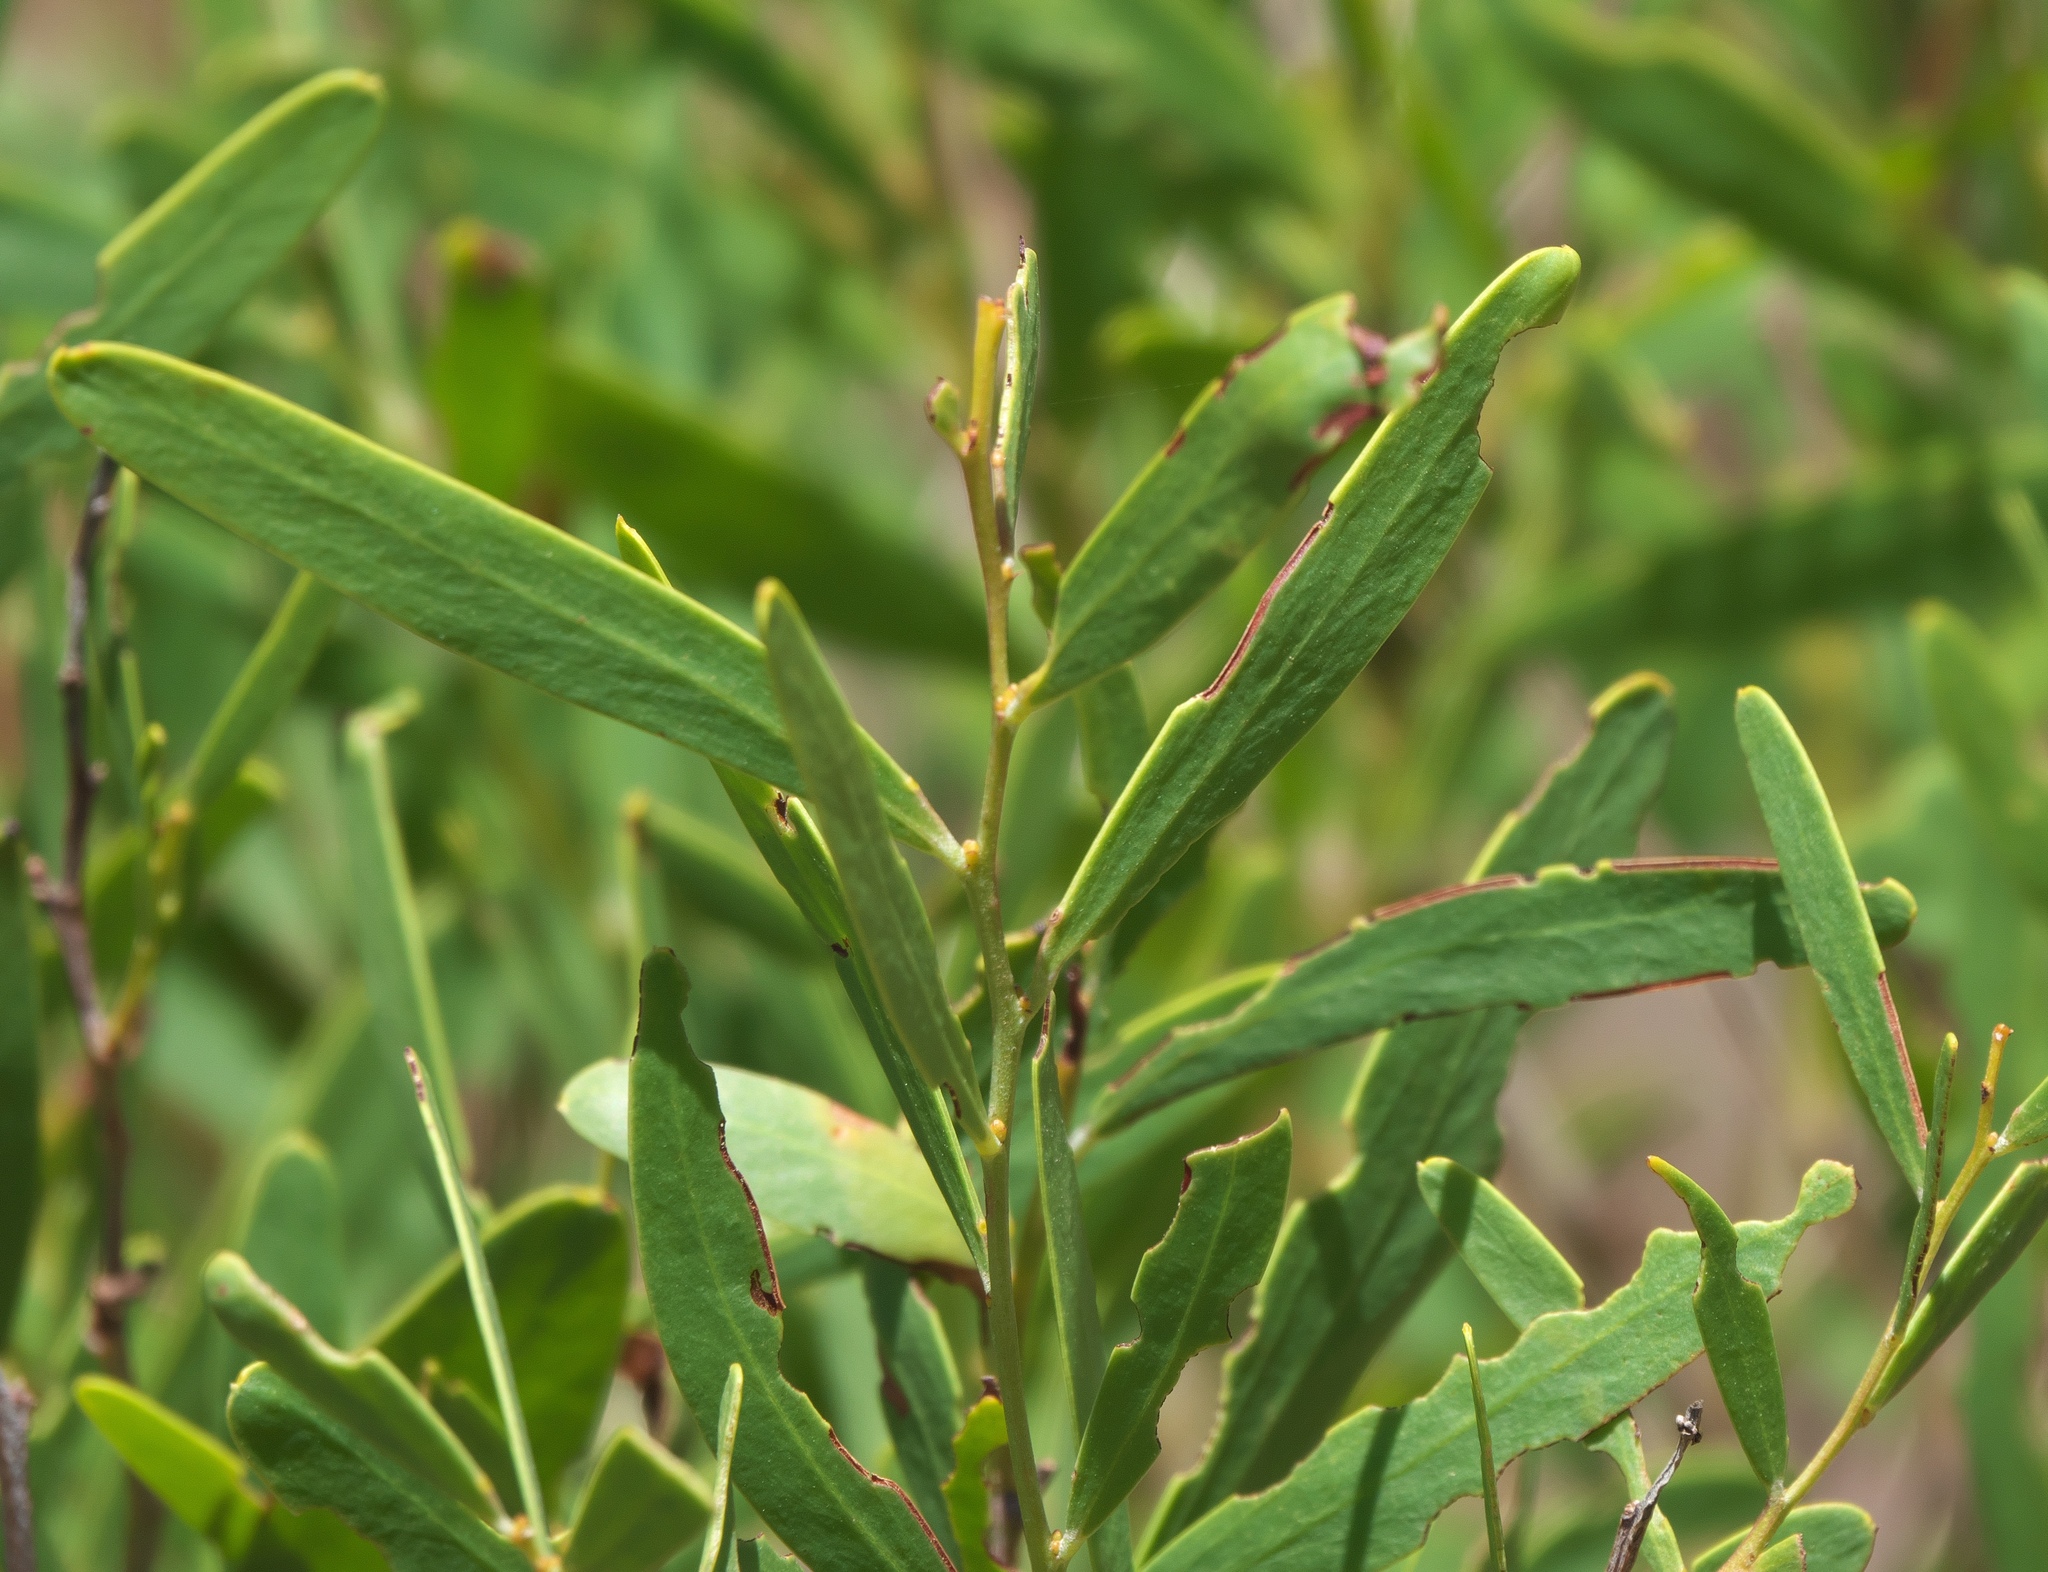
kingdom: Plantae
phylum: Tracheophyta
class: Magnoliopsida
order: Fabales
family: Fabaceae
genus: Acacia
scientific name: Acacia rostellifera
